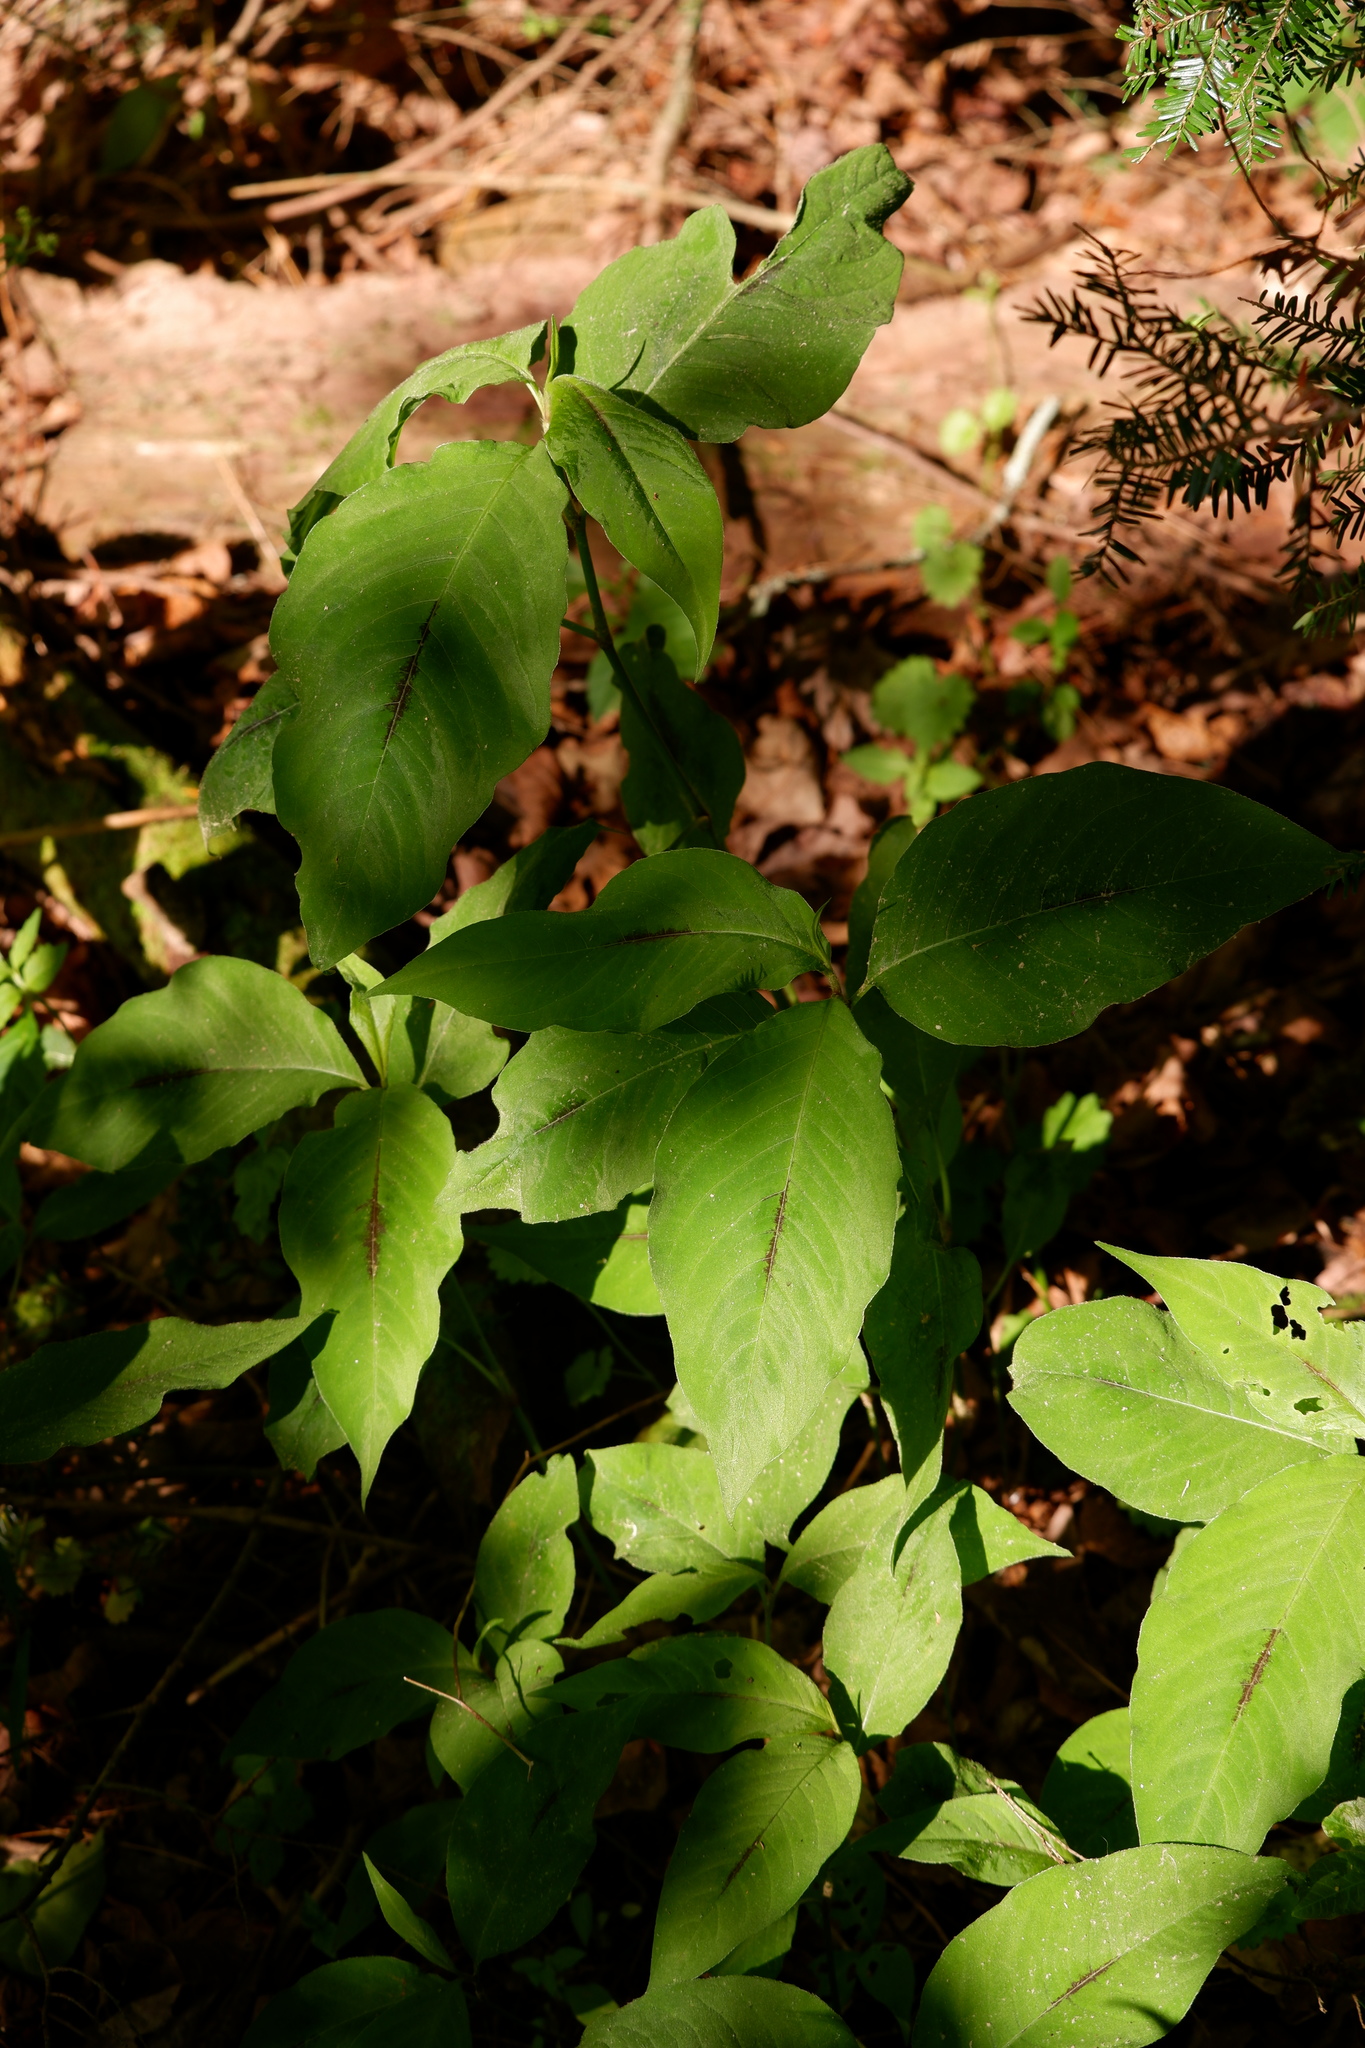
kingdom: Plantae
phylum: Tracheophyta
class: Magnoliopsida
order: Caryophyllales
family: Polygonaceae
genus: Persicaria
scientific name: Persicaria virginiana
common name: Jumpseed
